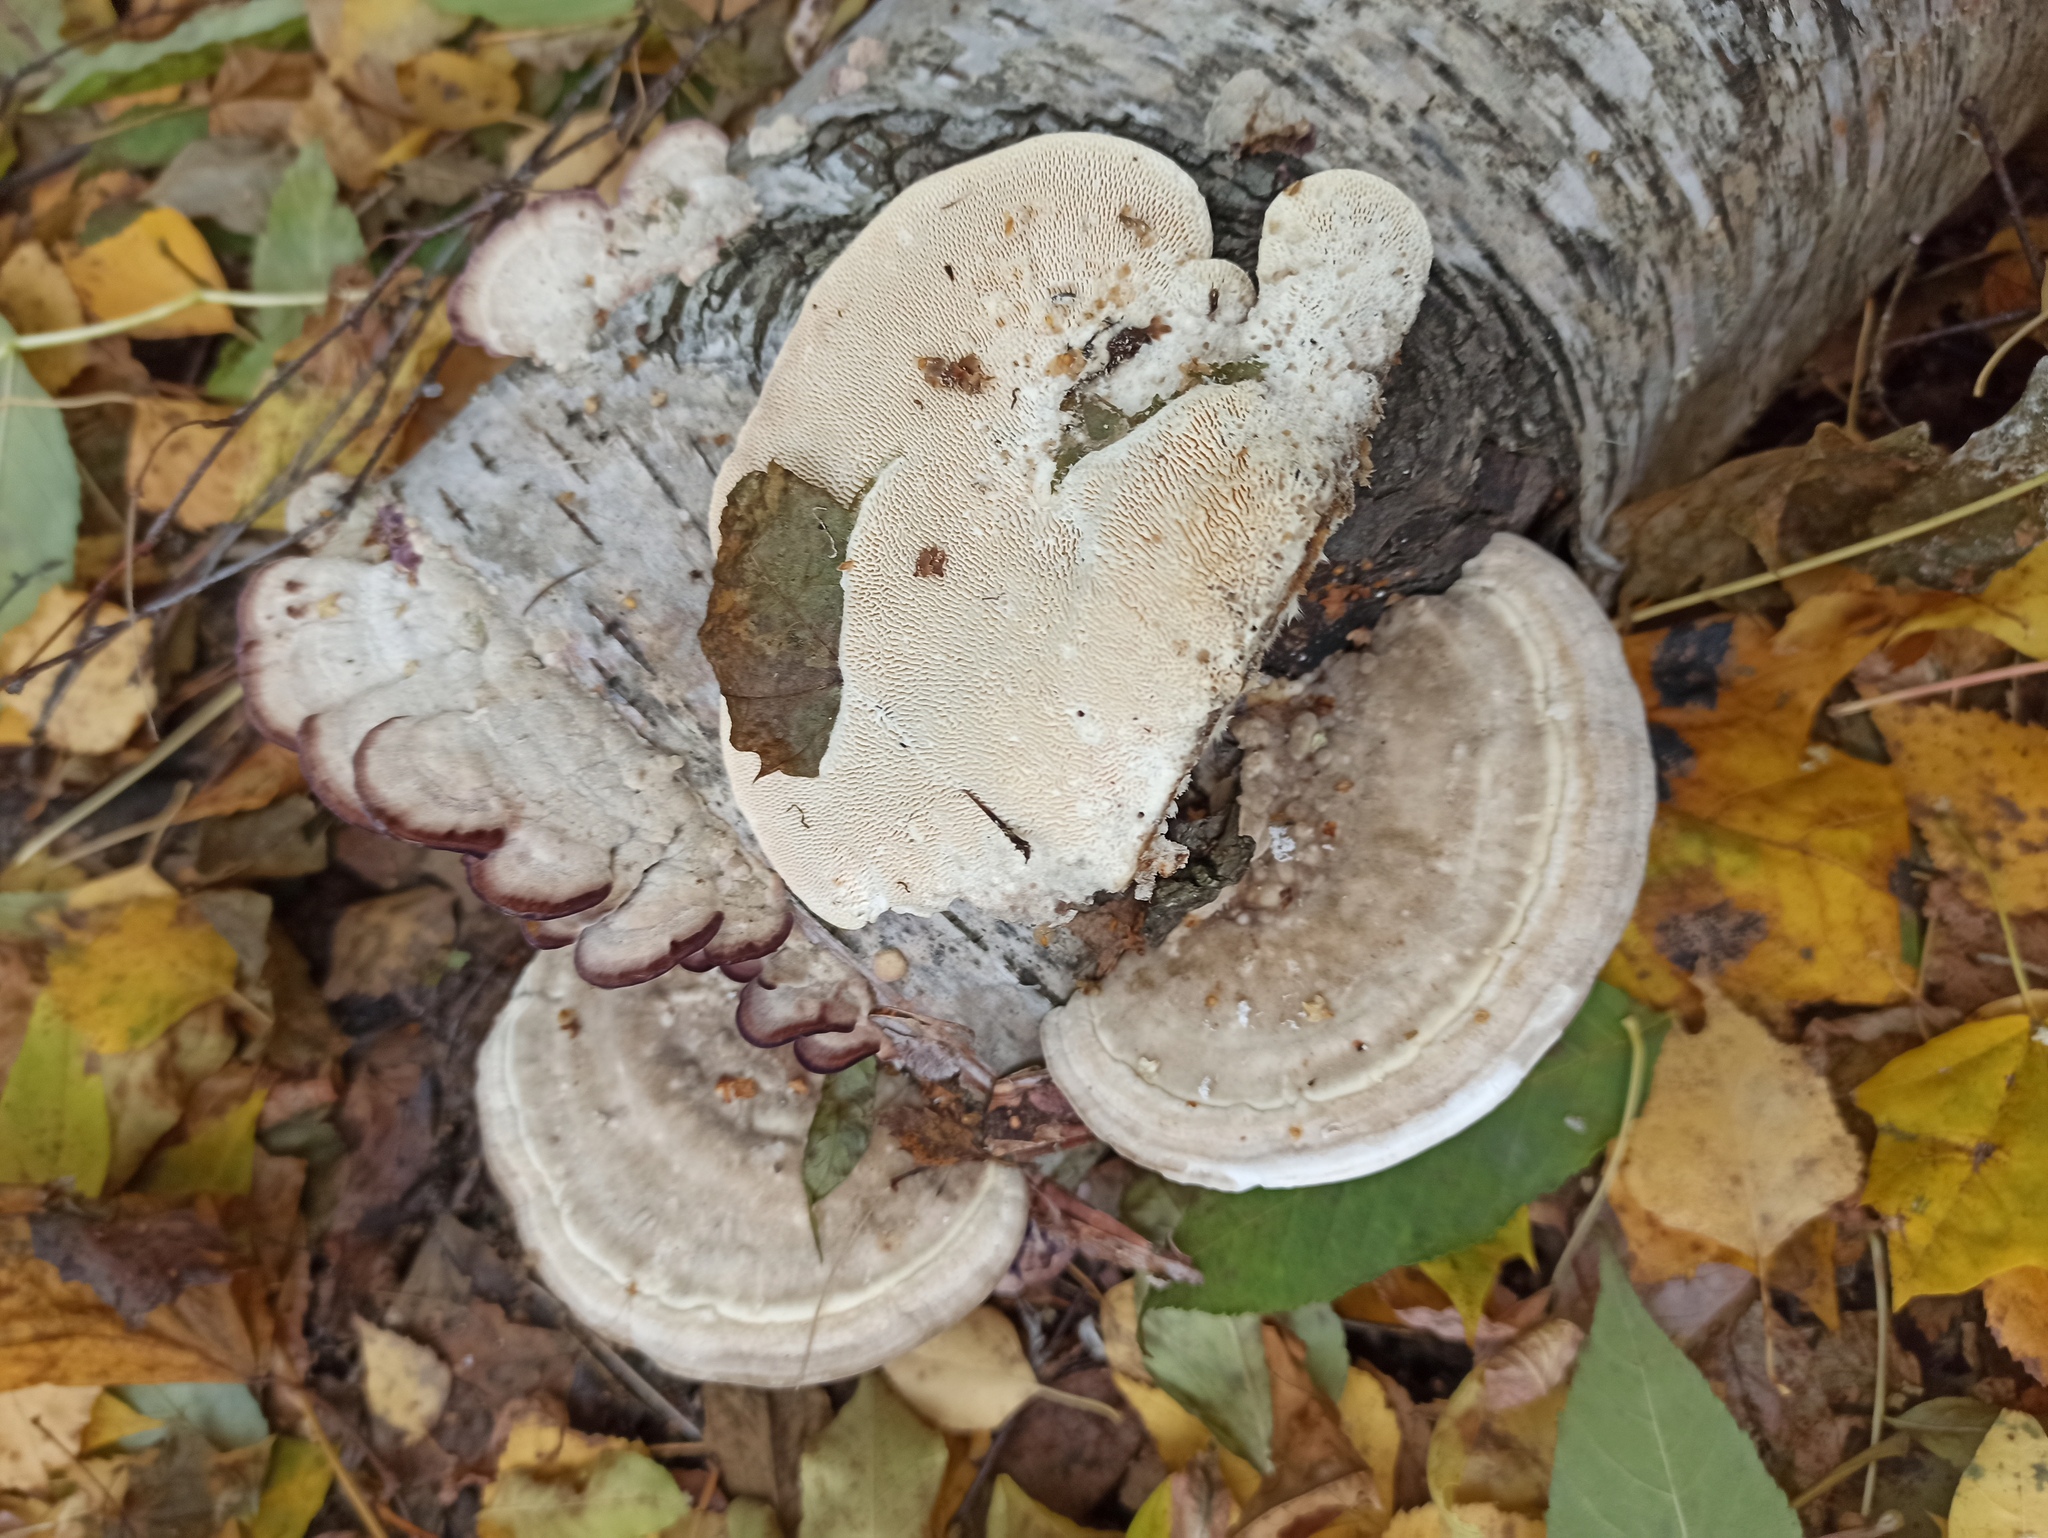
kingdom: Fungi
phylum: Basidiomycota
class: Agaricomycetes
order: Polyporales
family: Polyporaceae
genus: Trametes
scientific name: Trametes pubescens
